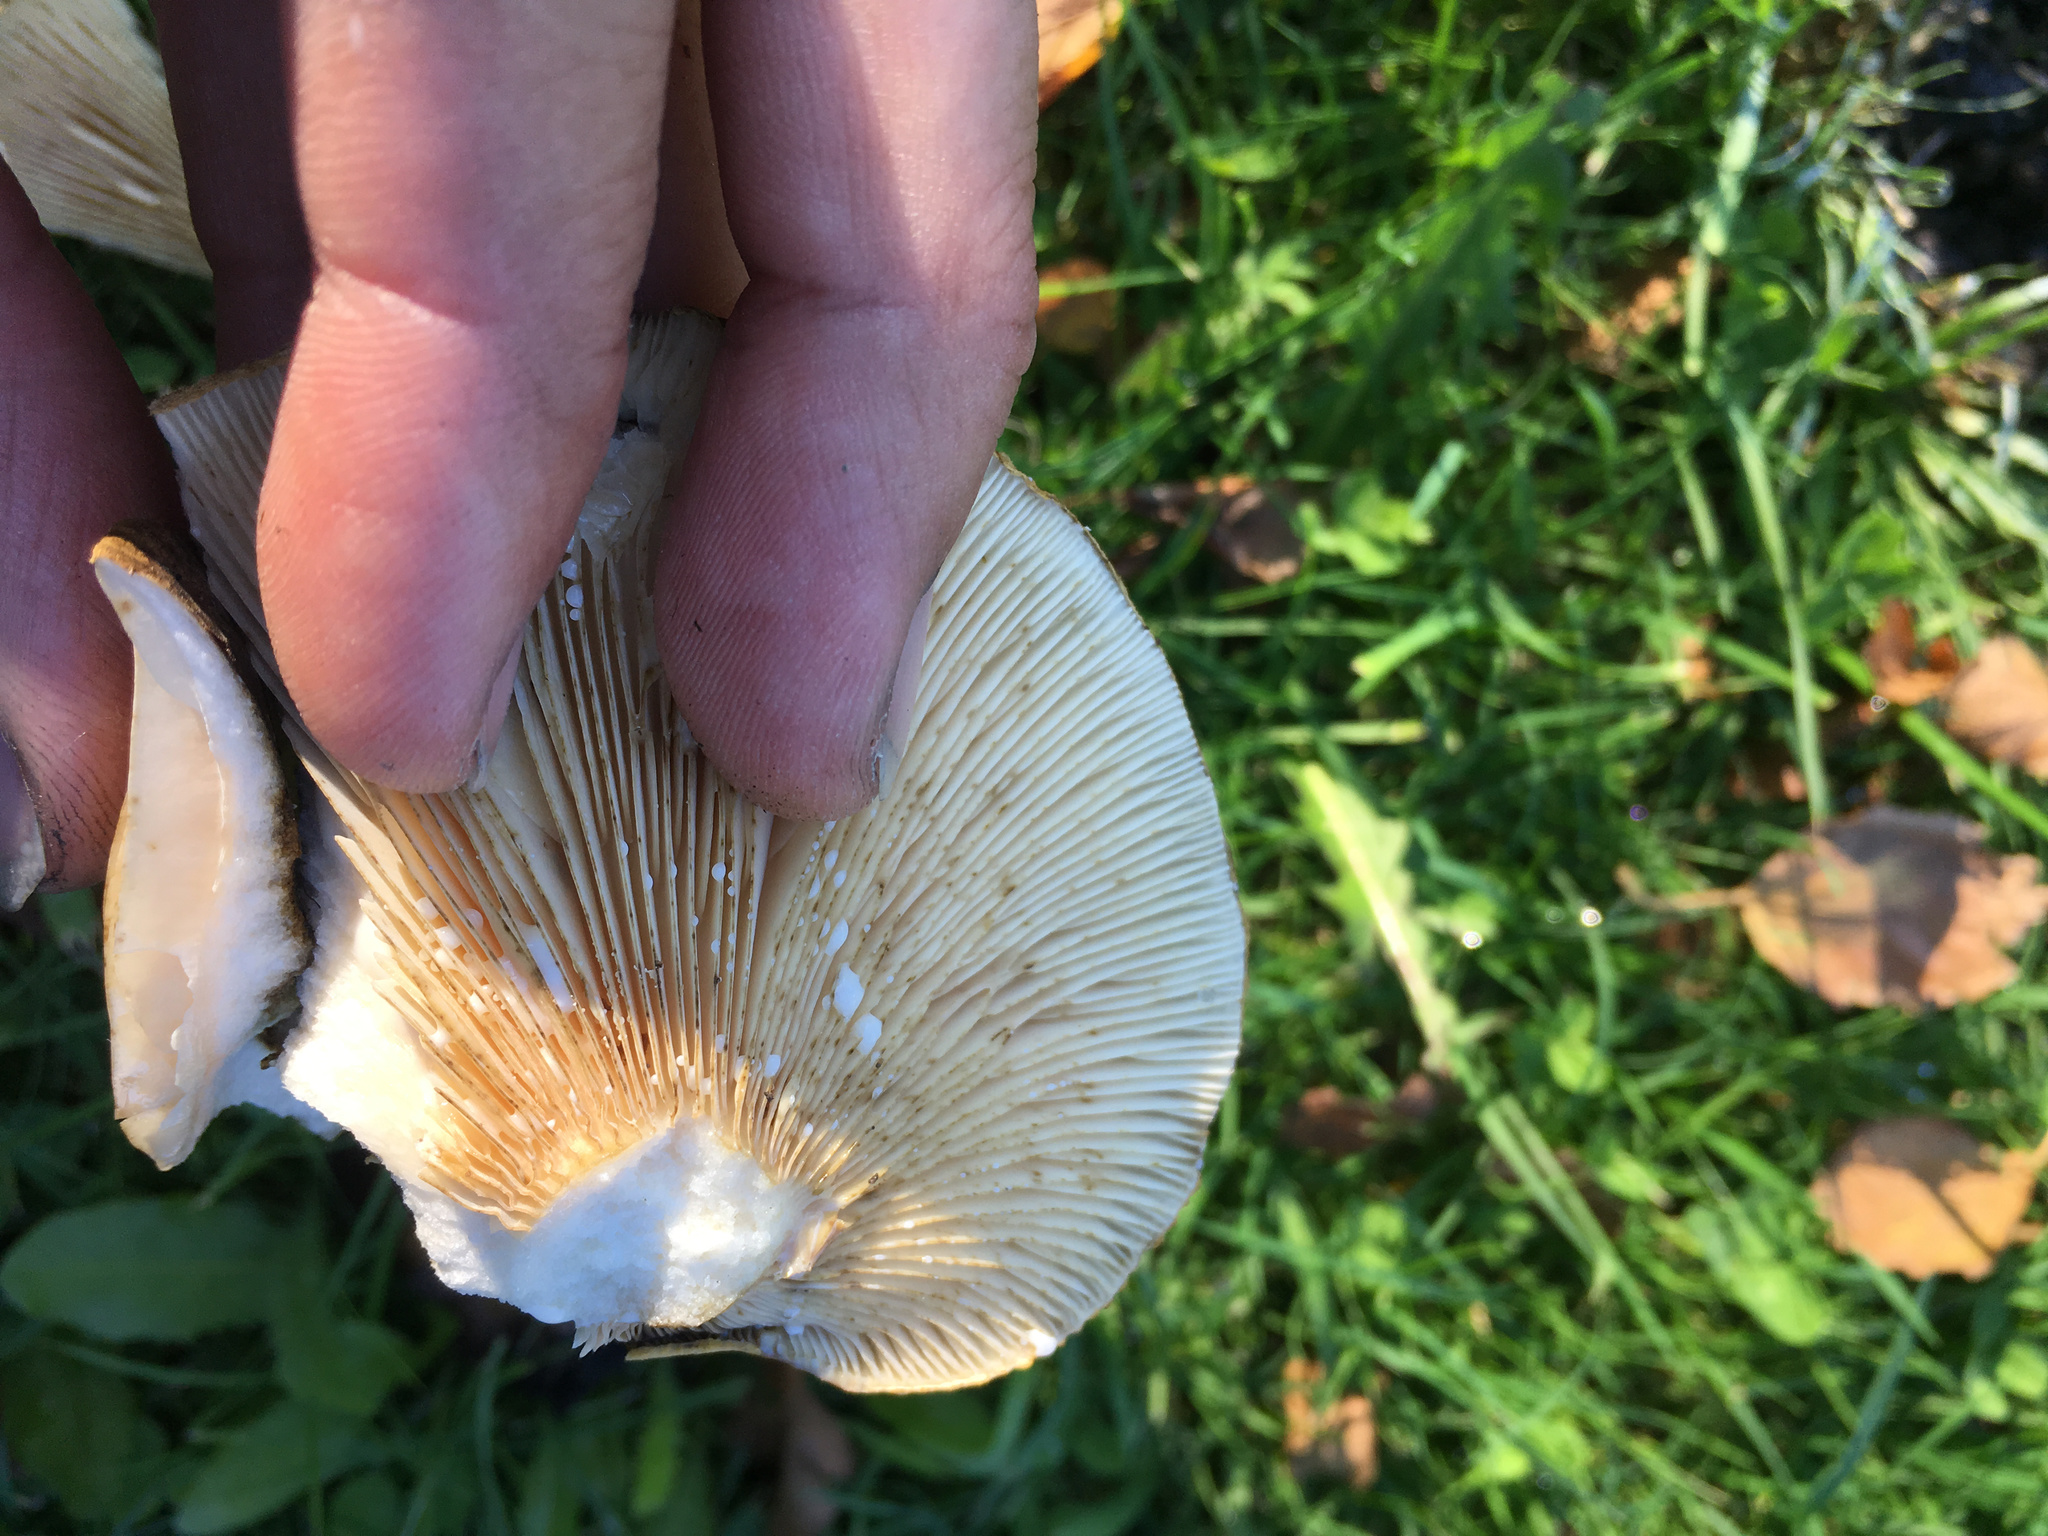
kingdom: Fungi
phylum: Basidiomycota
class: Agaricomycetes
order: Russulales
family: Russulaceae
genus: Lactarius
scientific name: Lactarius turpis
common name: Ugly milk-cap
